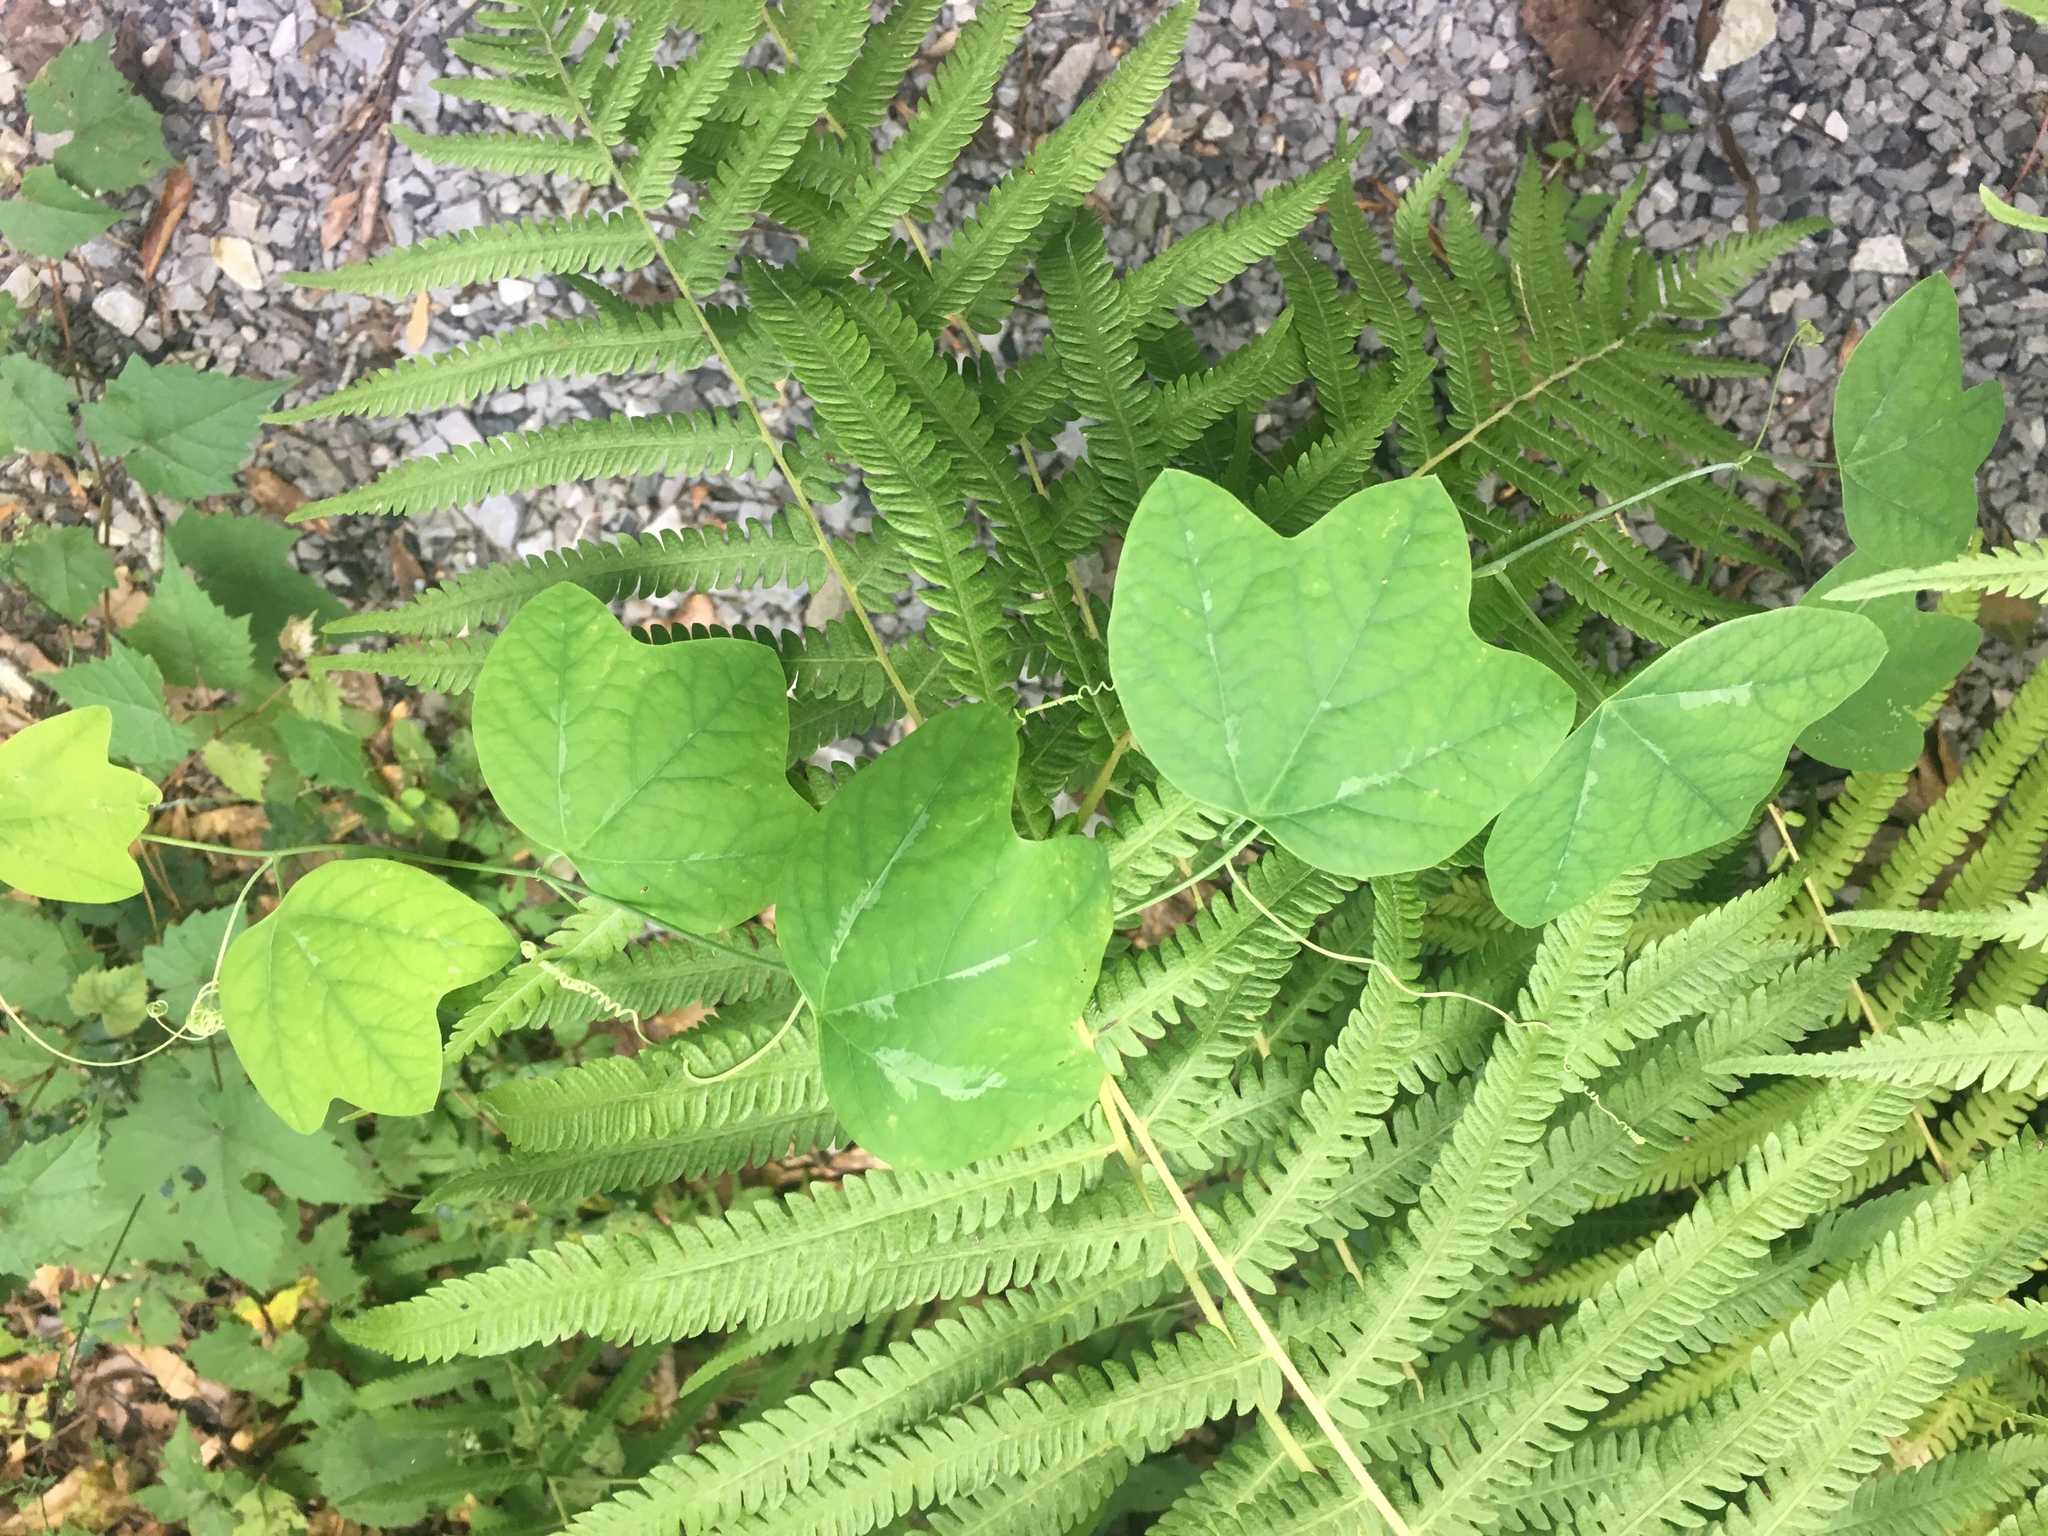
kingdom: Plantae
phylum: Tracheophyta
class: Magnoliopsida
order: Malpighiales
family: Passifloraceae
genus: Passiflora
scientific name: Passiflora lutea
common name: Yellow passionflower
